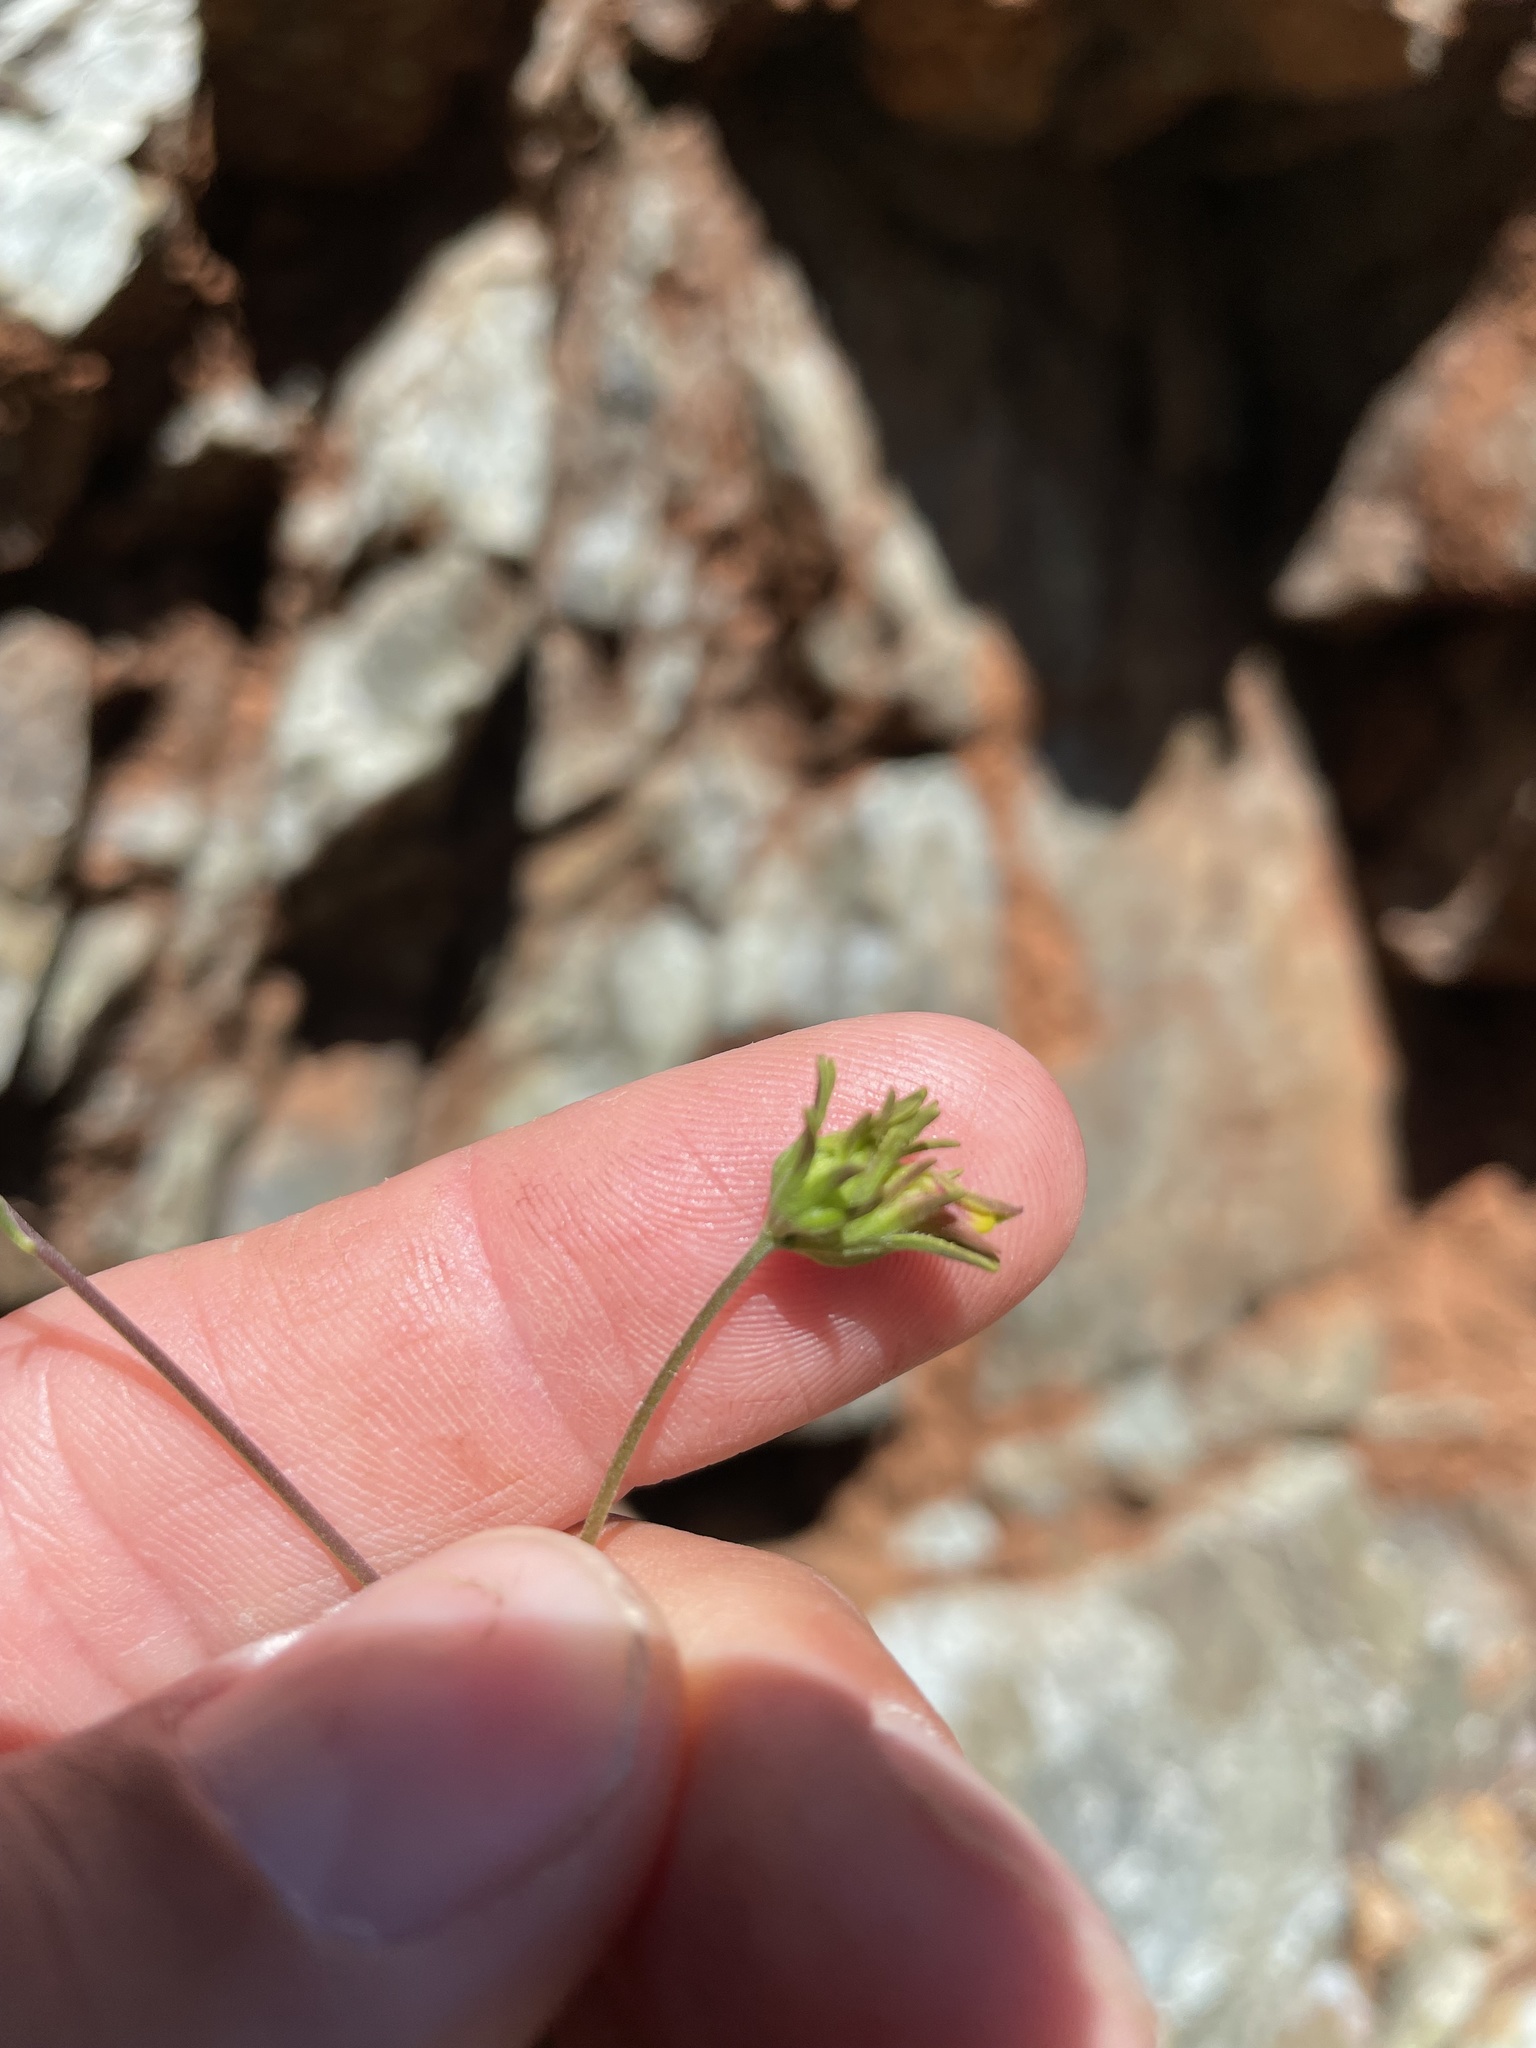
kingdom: Plantae
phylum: Tracheophyta
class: Magnoliopsida
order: Lamiales
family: Orobanchaceae
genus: Cordylanthus
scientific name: Cordylanthus pringlei
